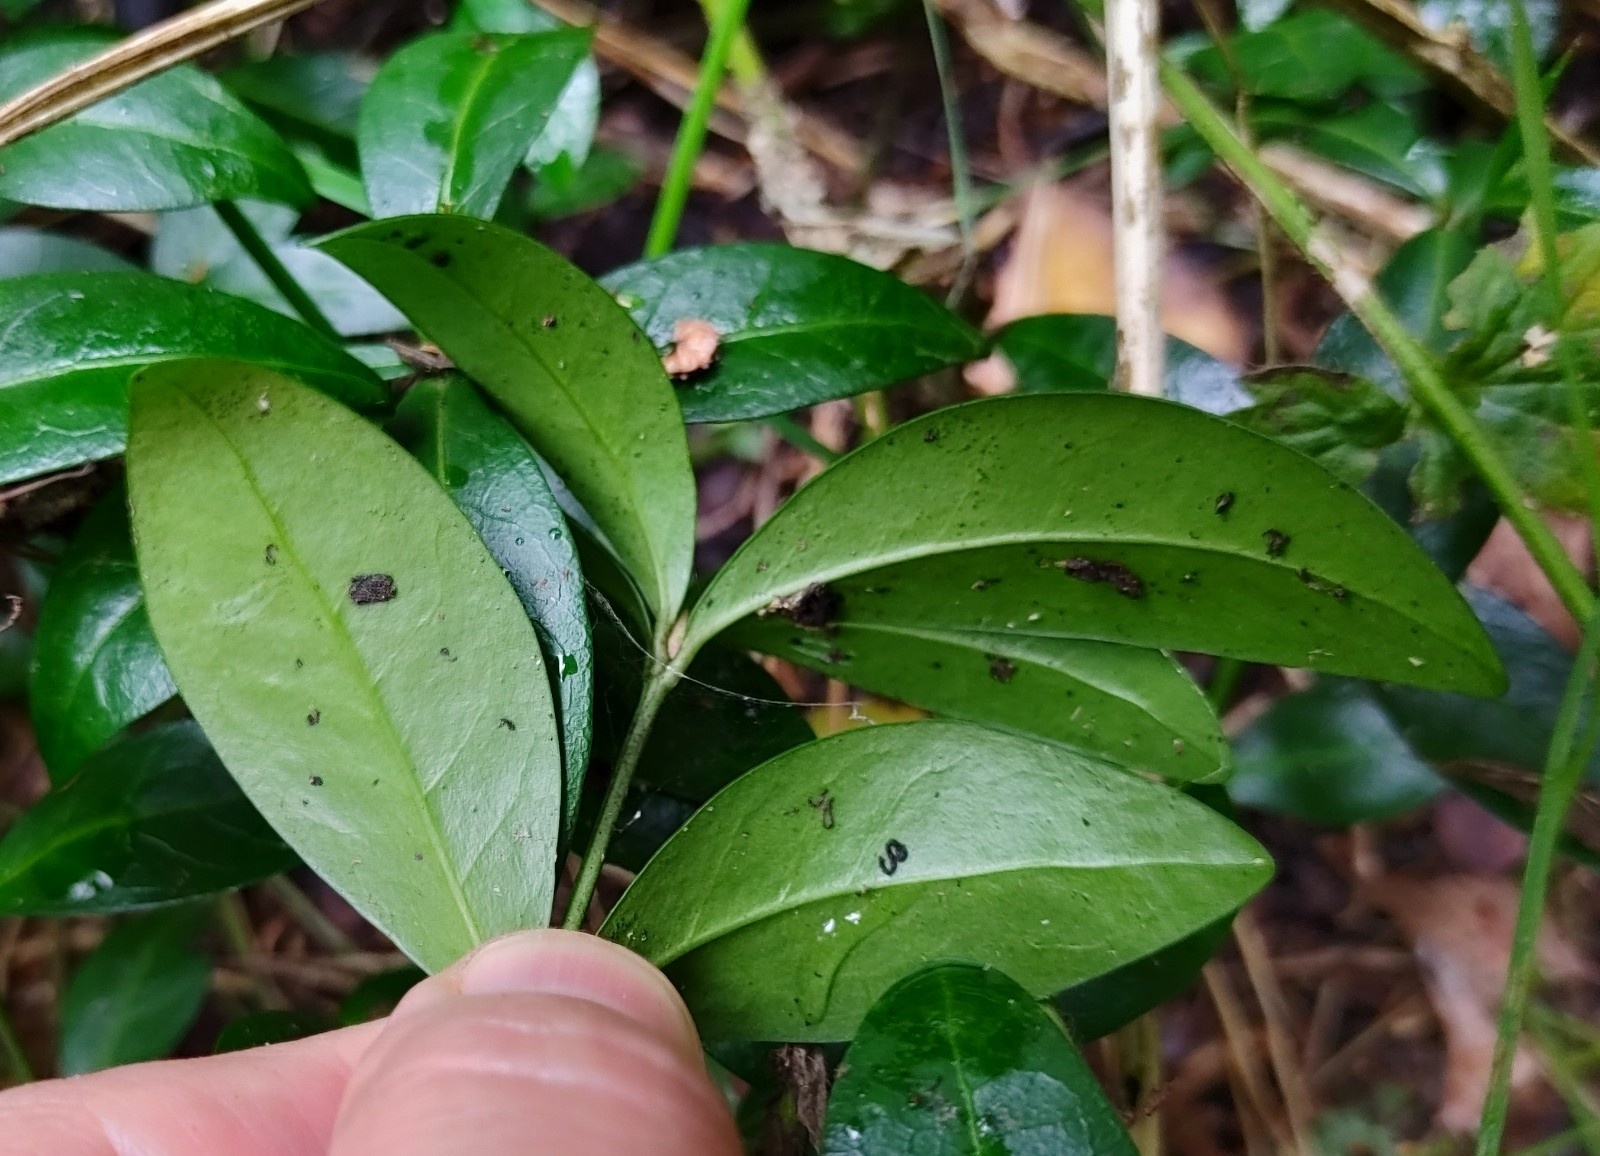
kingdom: Plantae
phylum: Tracheophyta
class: Magnoliopsida
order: Gentianales
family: Apocynaceae
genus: Vinca
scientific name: Vinca minor
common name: Lesser periwinkle
